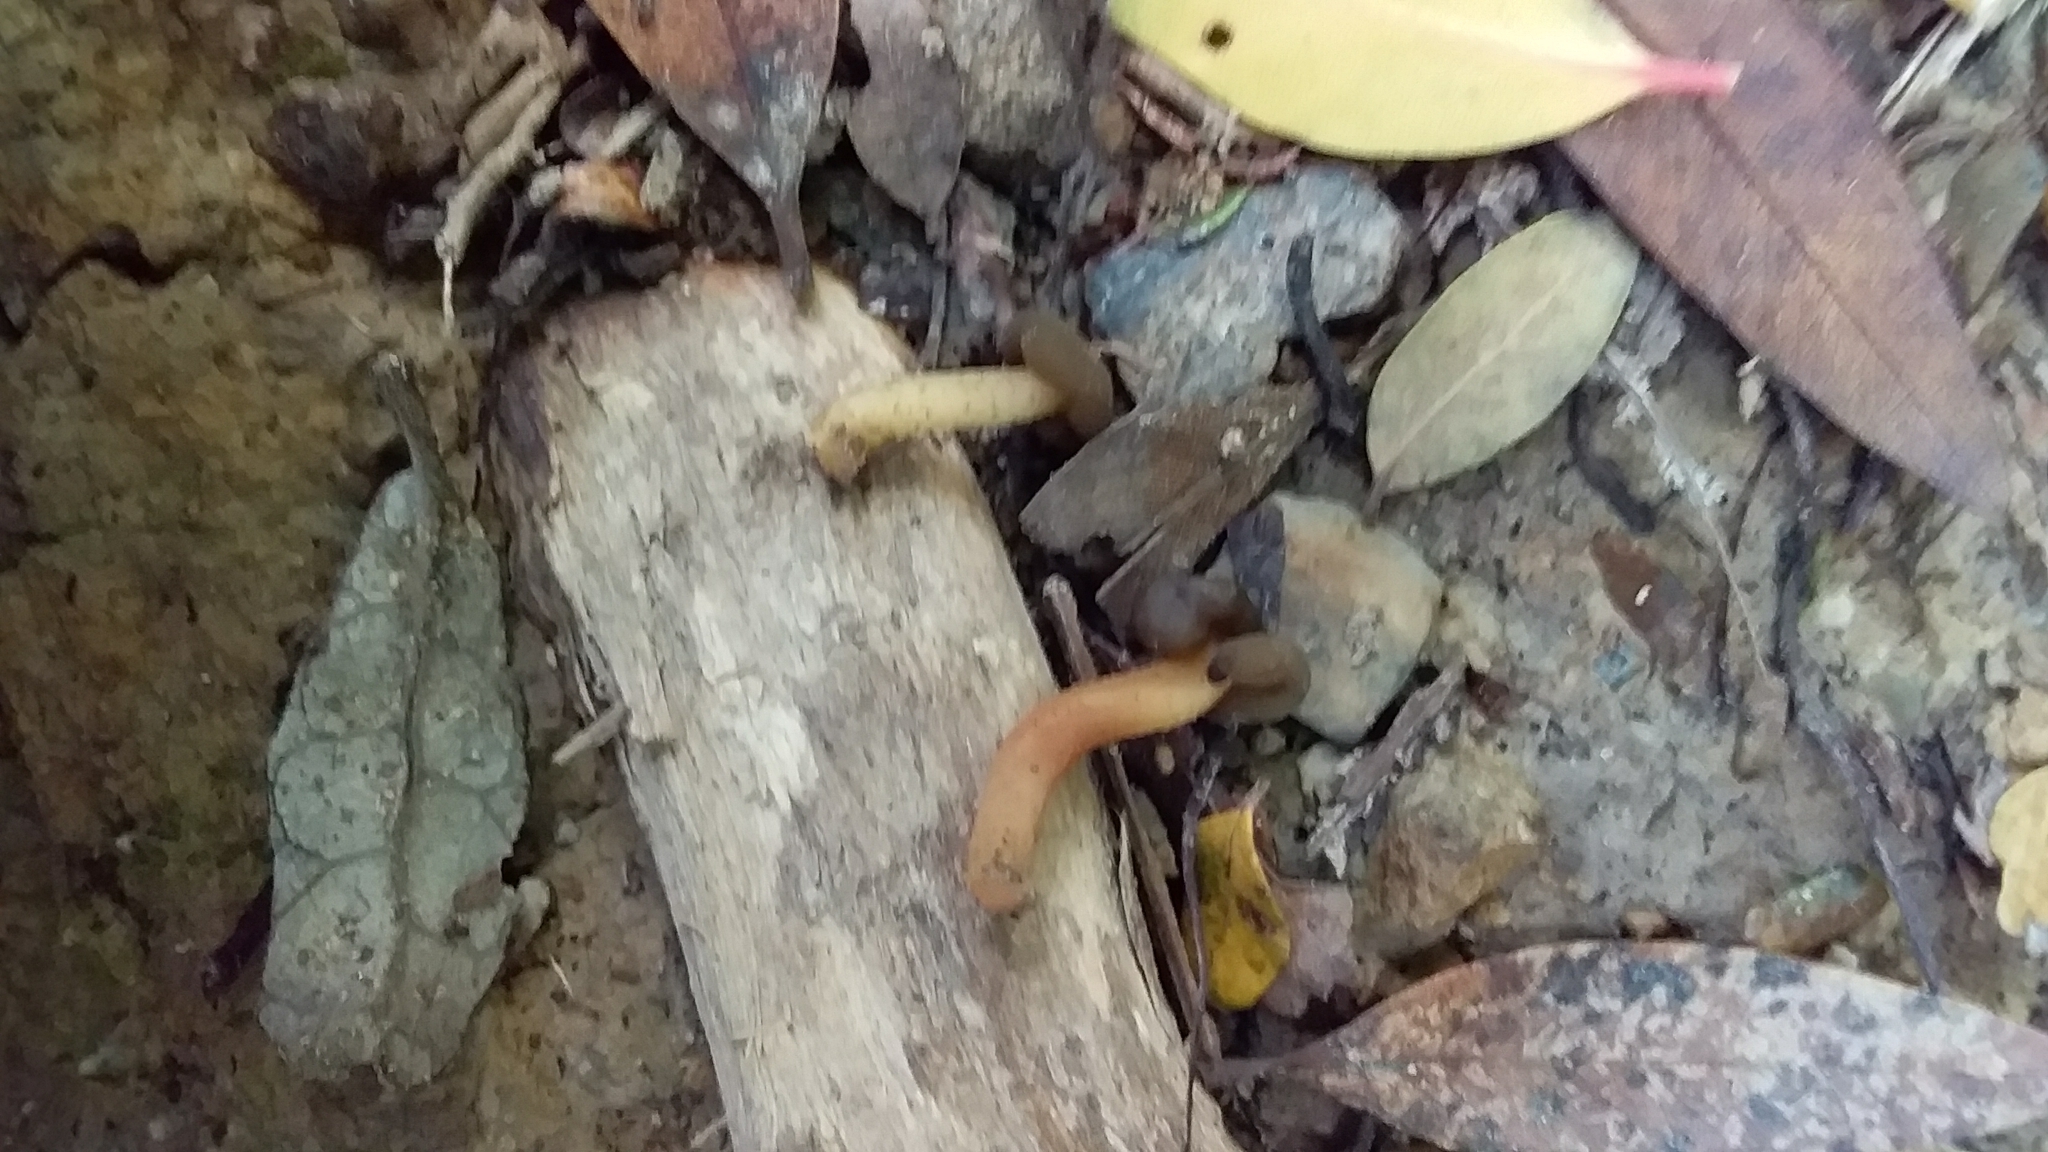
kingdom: Fungi
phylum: Ascomycota
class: Leotiomycetes
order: Leotiales
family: Leotiaceae
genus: Leotia
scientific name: Leotia lubrica
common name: Jellybaby
